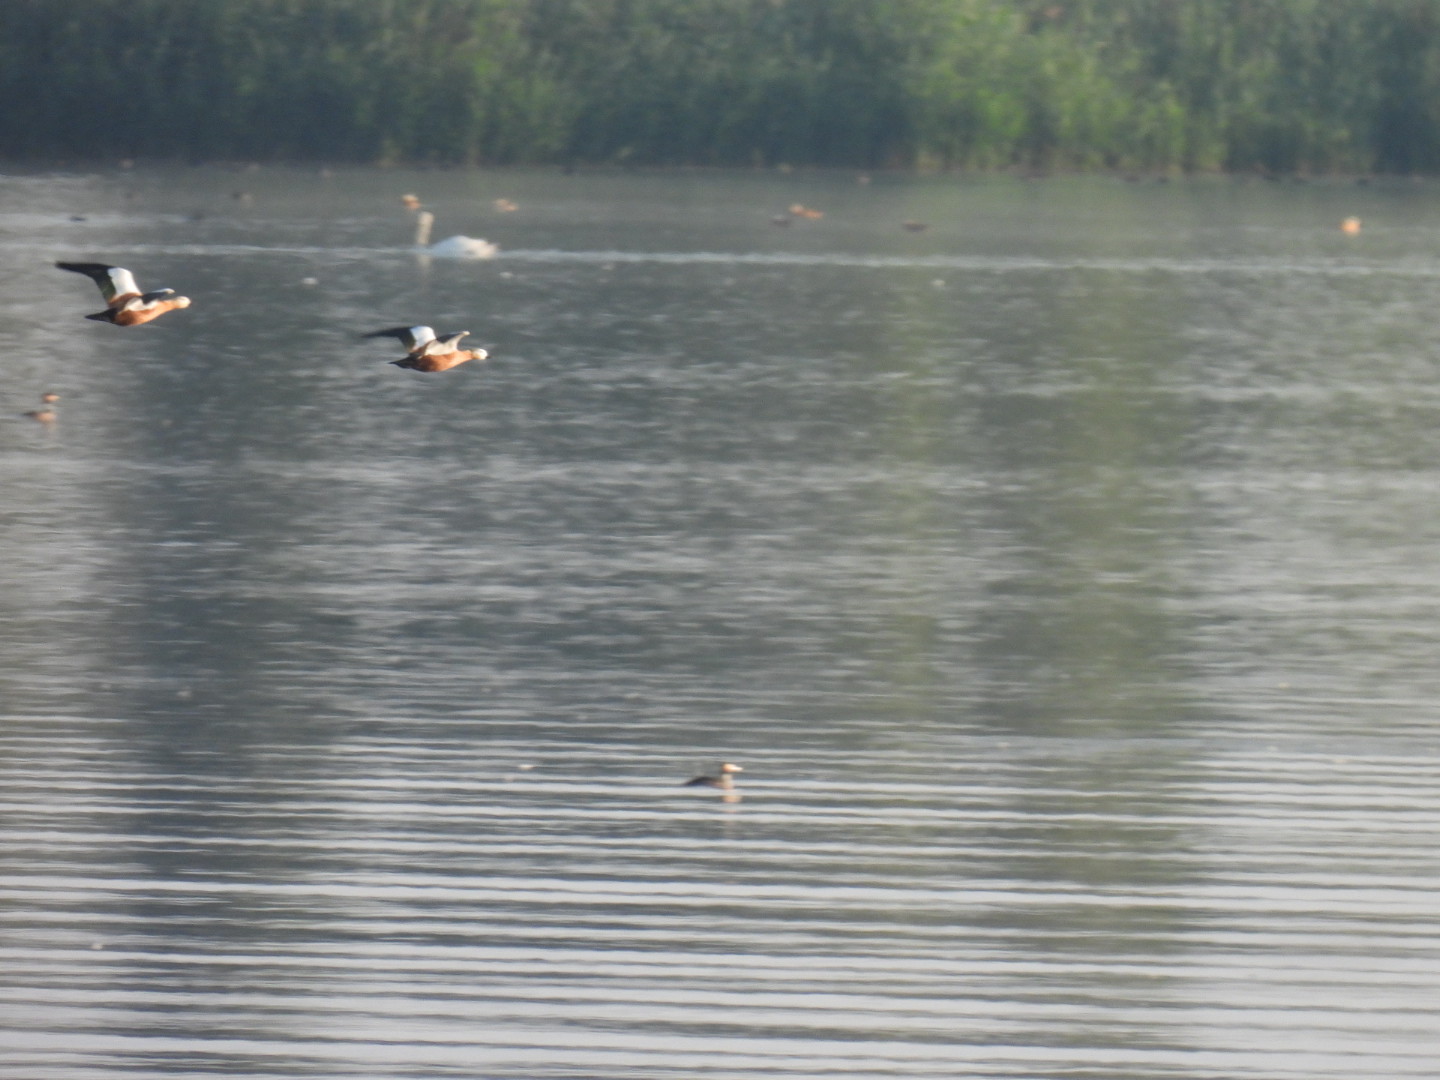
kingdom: Animalia
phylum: Chordata
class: Aves
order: Anseriformes
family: Anatidae
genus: Tadorna
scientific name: Tadorna ferruginea
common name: Ruddy shelduck
